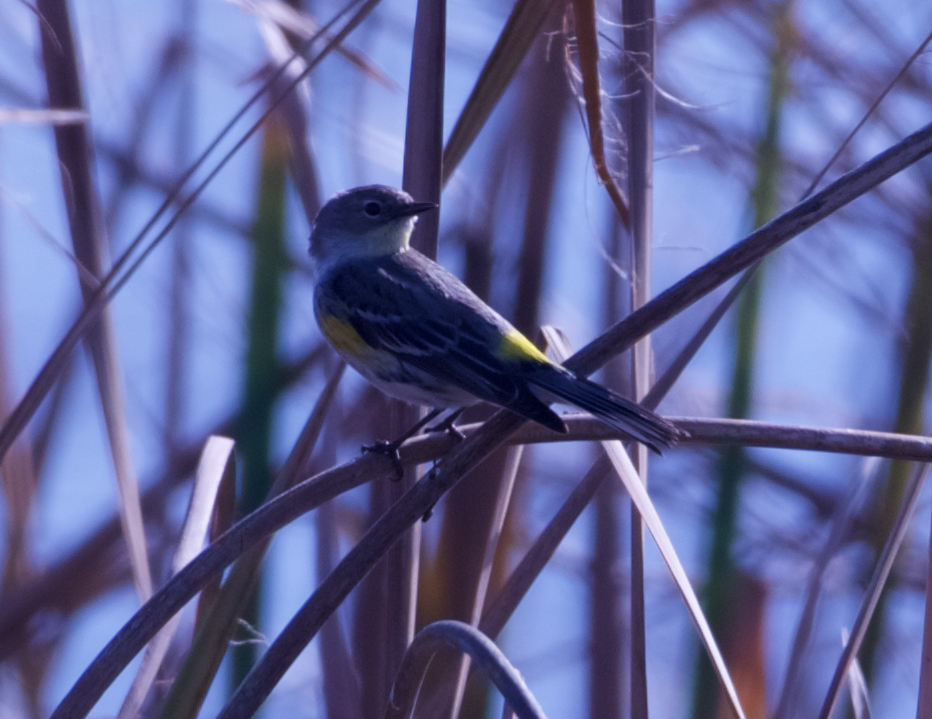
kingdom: Animalia
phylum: Chordata
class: Aves
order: Passeriformes
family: Parulidae
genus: Setophaga
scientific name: Setophaga coronata
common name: Myrtle warbler
